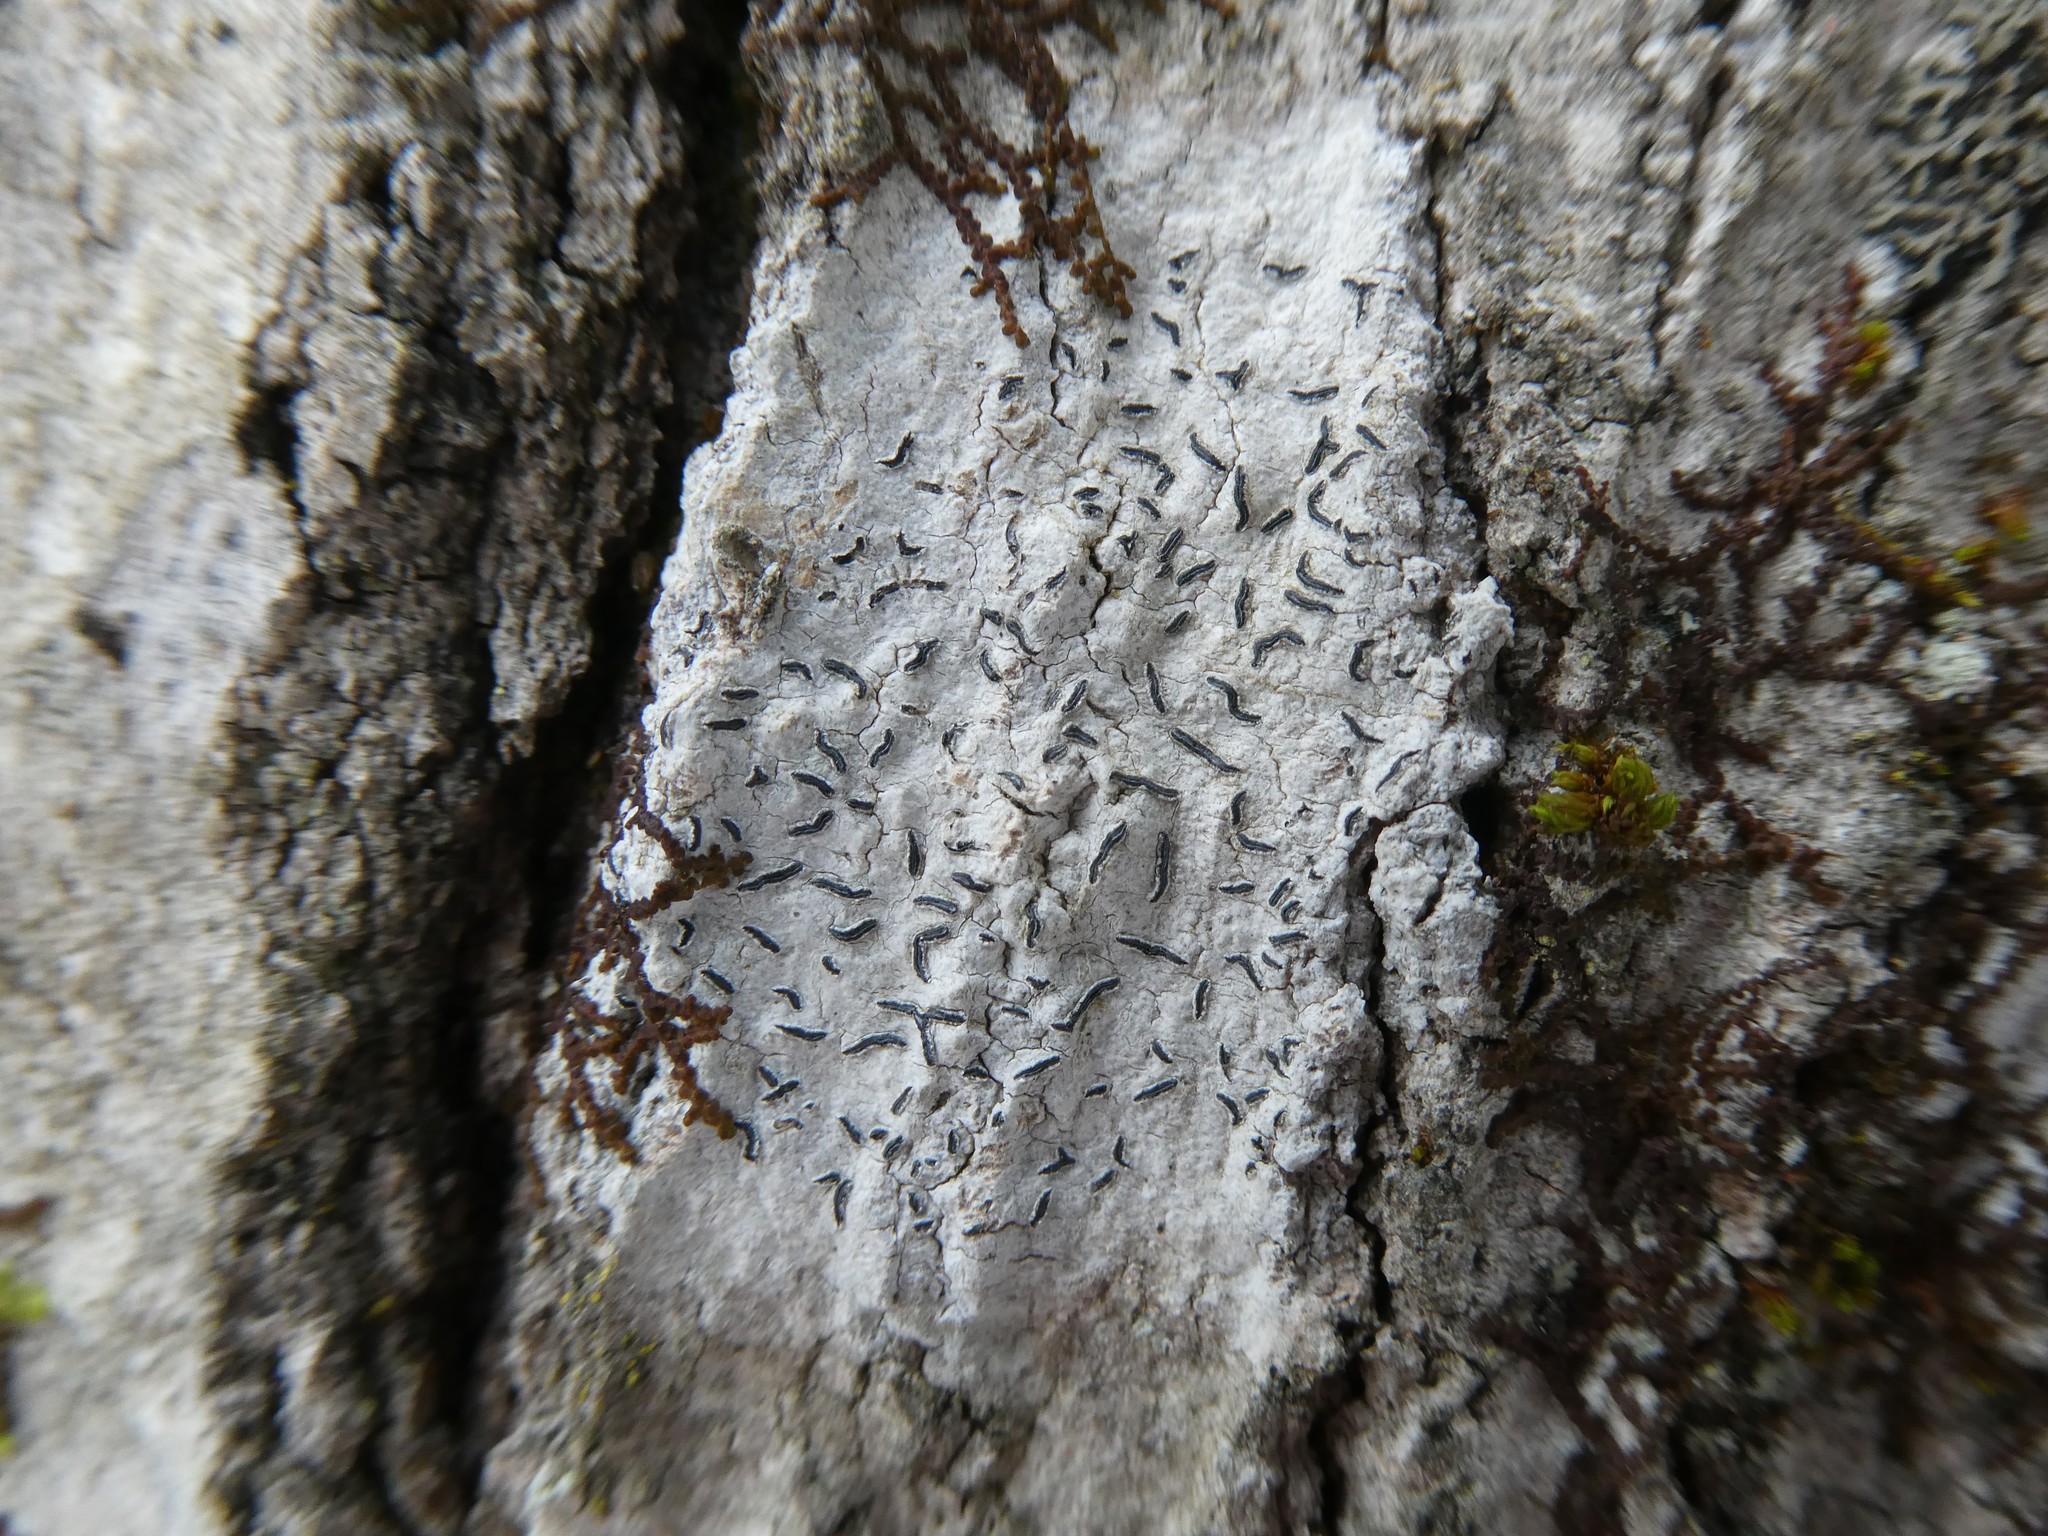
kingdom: Fungi
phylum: Ascomycota
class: Lecanoromycetes
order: Ostropales
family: Graphidaceae
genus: Graphis
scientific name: Graphis scripta
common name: Script lichen
